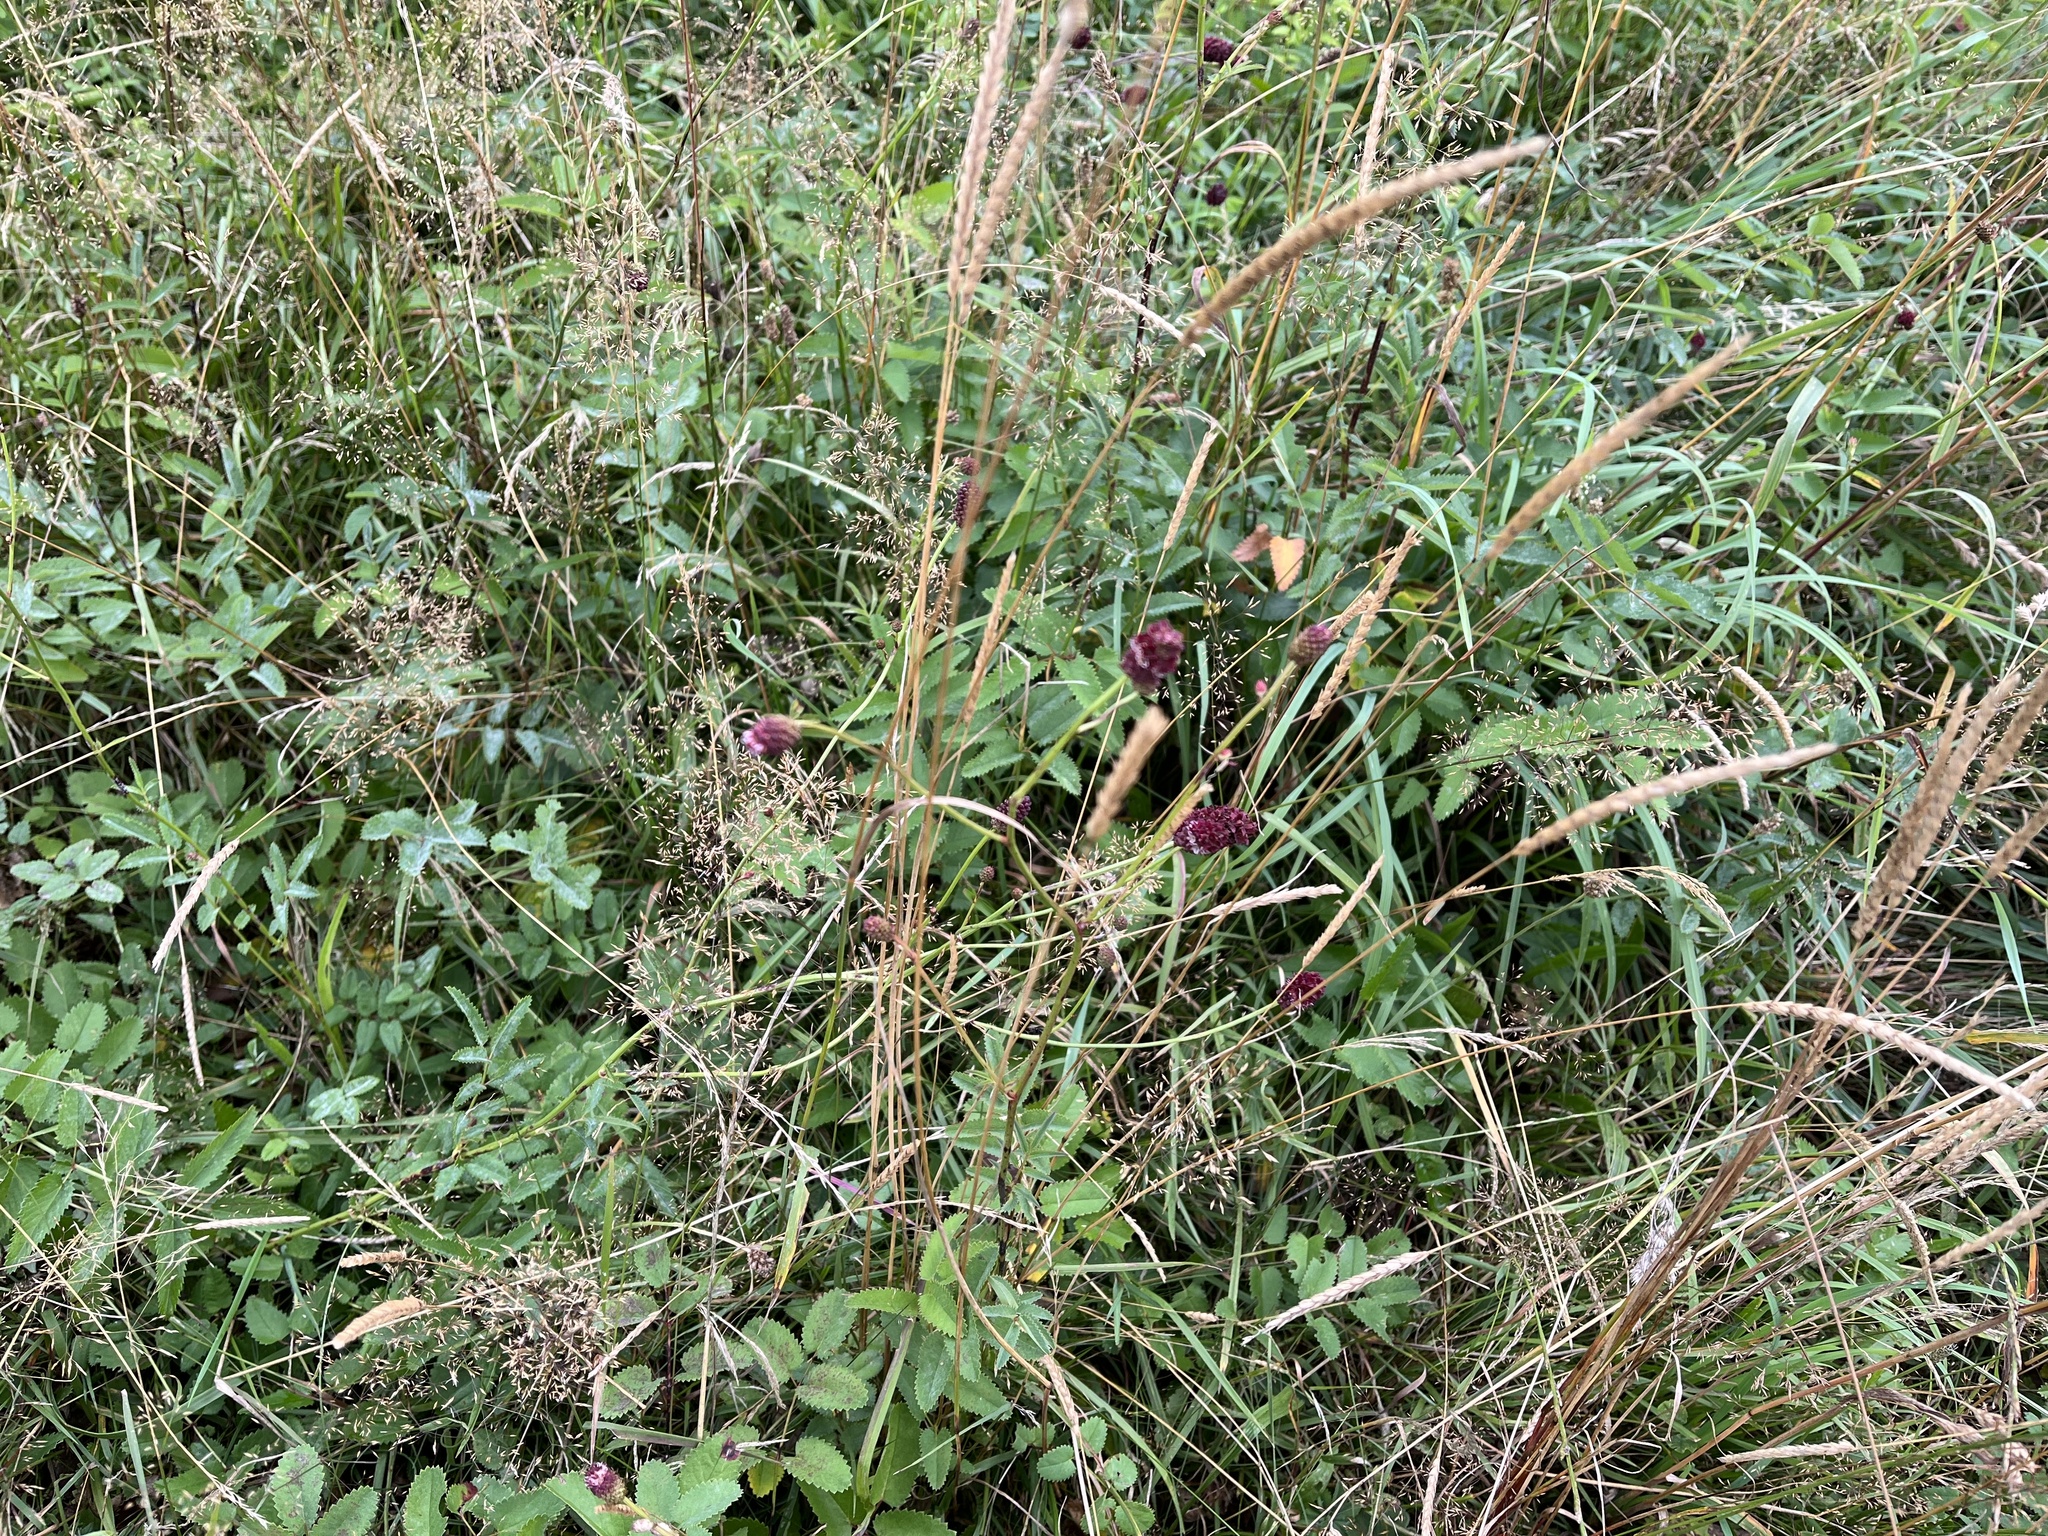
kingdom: Plantae
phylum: Tracheophyta
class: Magnoliopsida
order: Rosales
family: Rosaceae
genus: Sanguisorba
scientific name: Sanguisorba officinalis
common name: Great burnet
